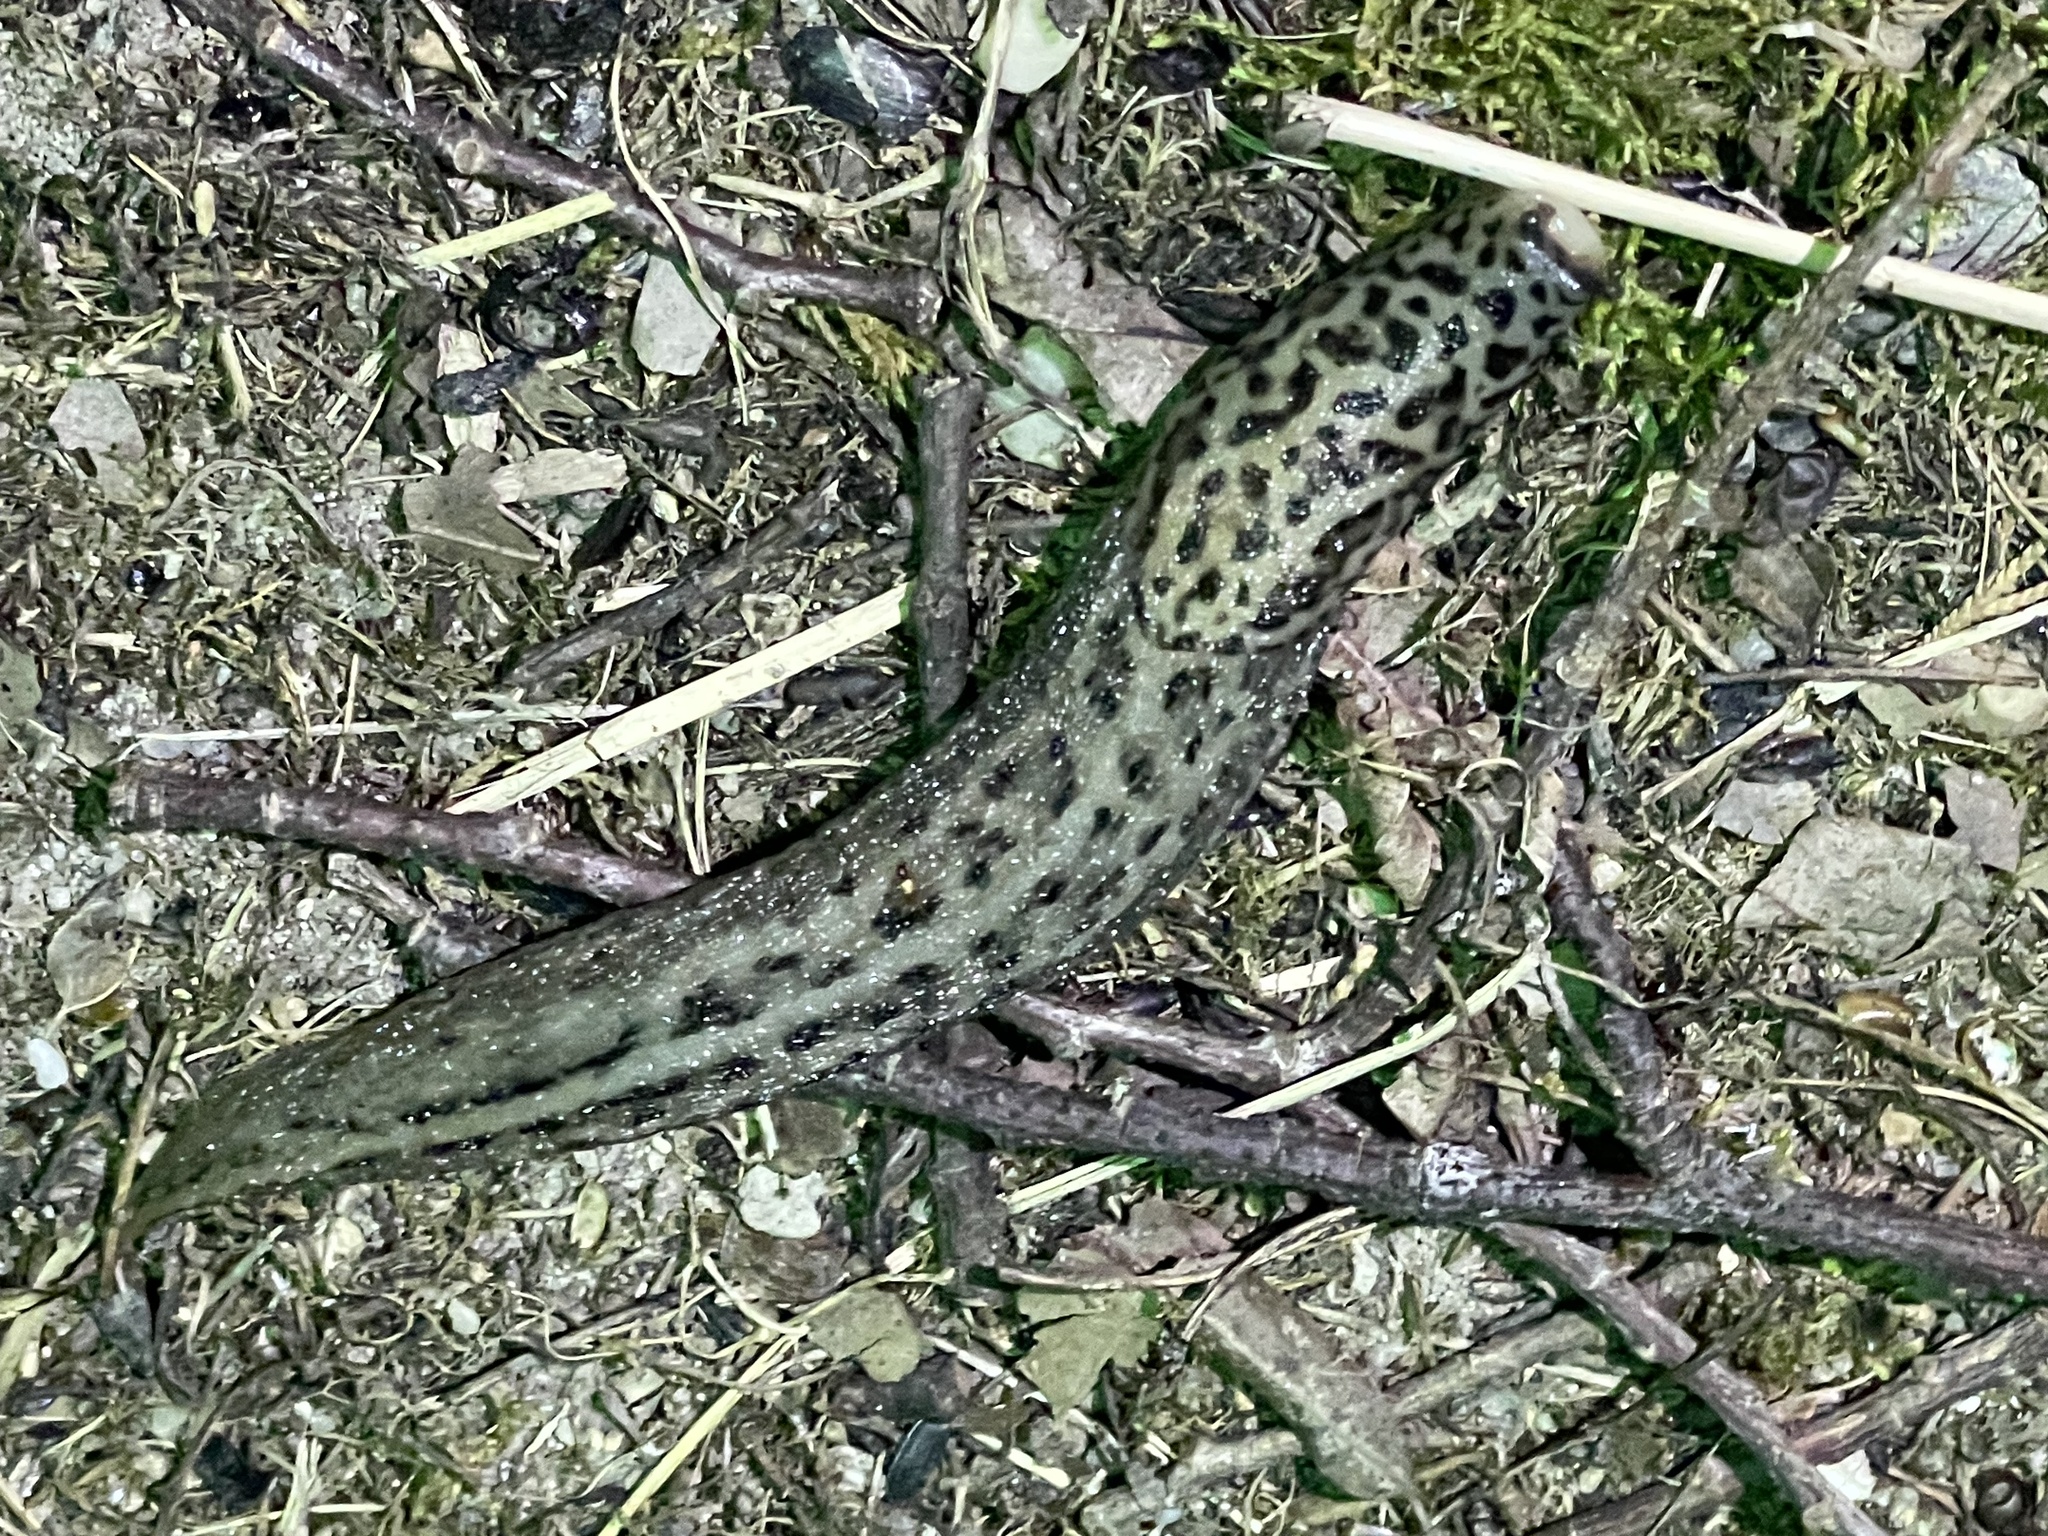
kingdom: Animalia
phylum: Mollusca
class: Gastropoda
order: Stylommatophora
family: Limacidae
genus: Limax
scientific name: Limax maximus
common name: Great grey slug
